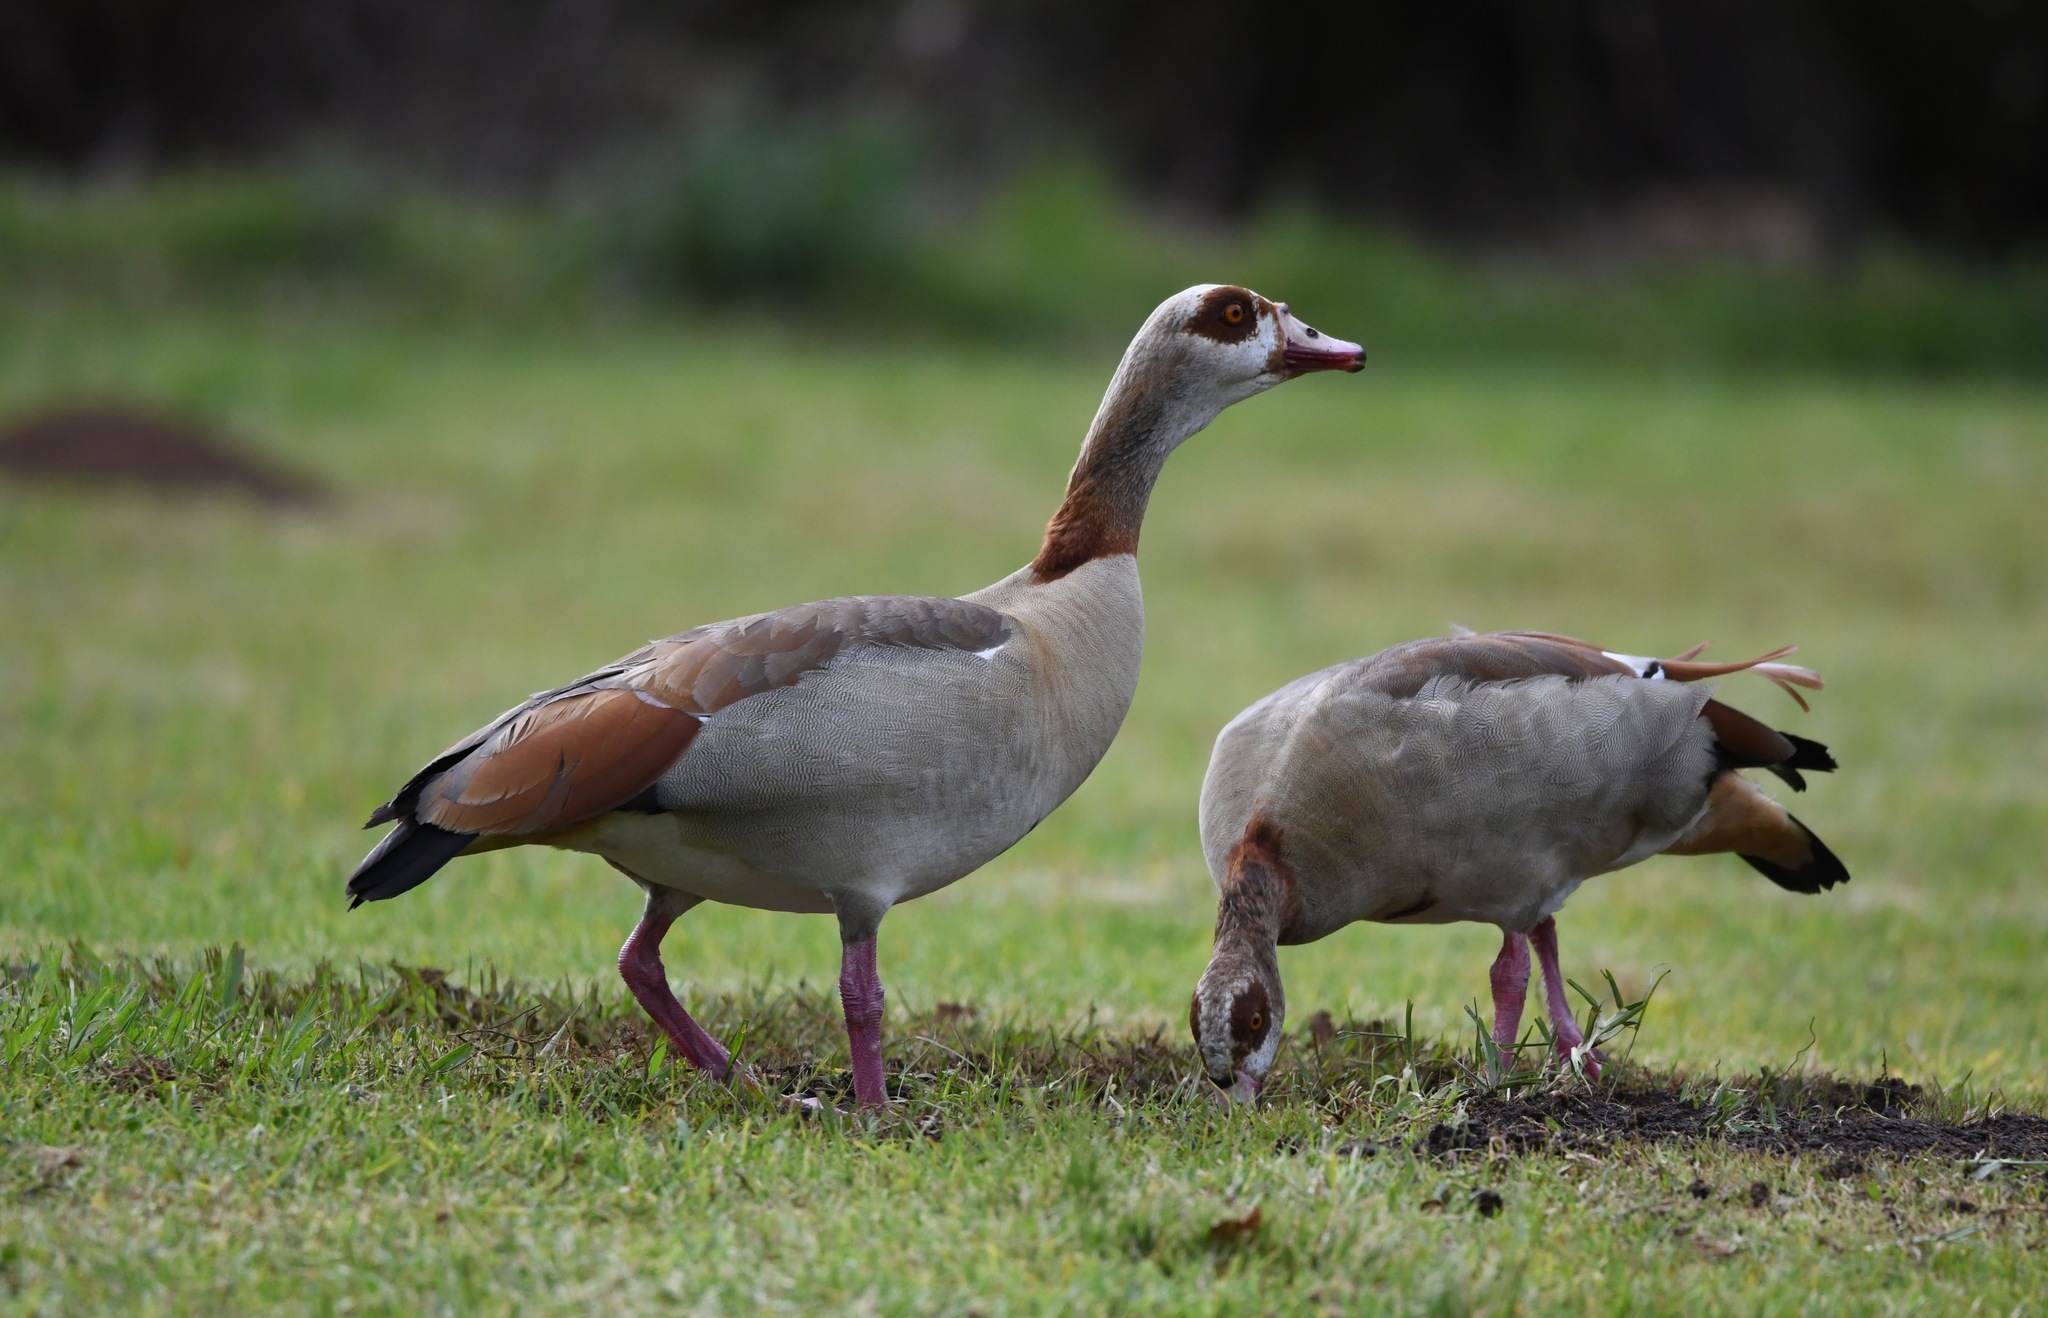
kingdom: Animalia
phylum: Chordata
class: Aves
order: Anseriformes
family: Anatidae
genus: Alopochen
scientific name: Alopochen aegyptiaca
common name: Egyptian goose
